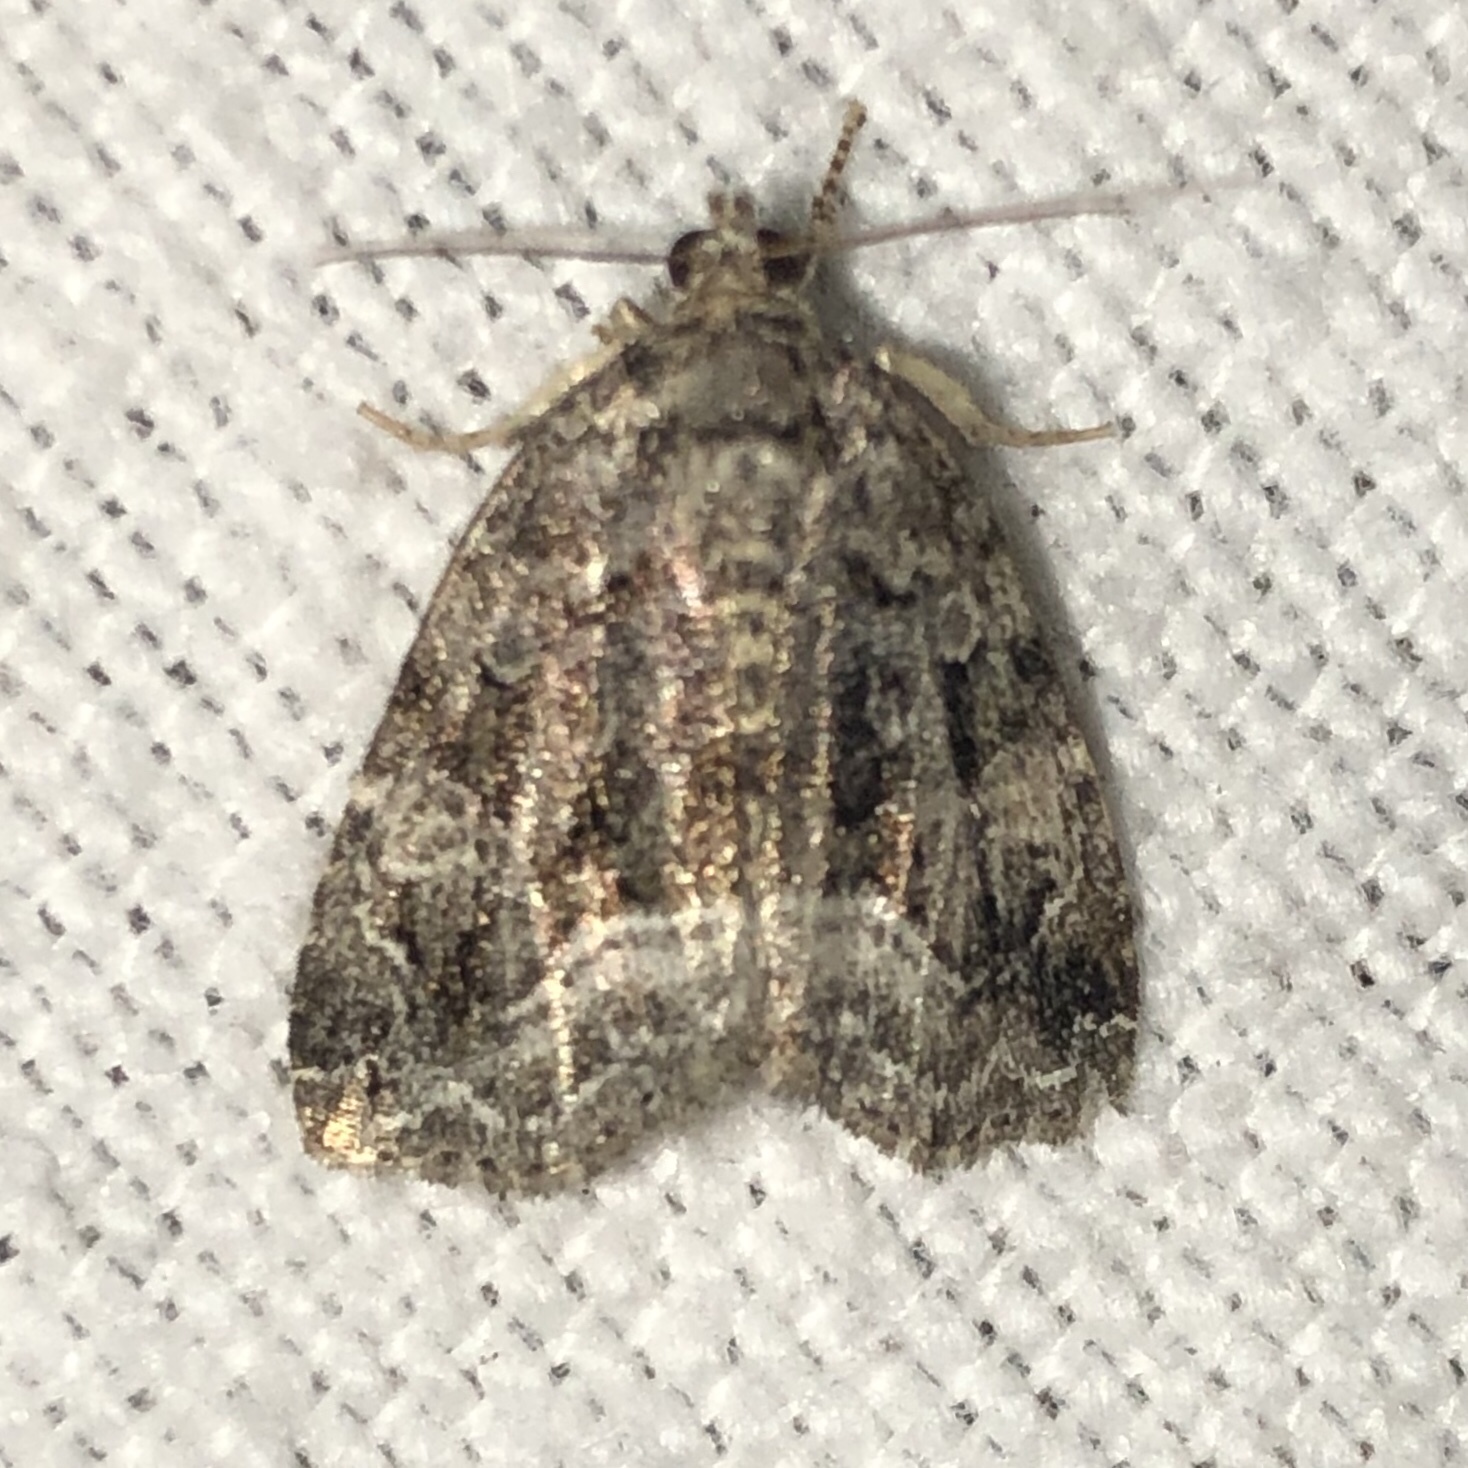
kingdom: Animalia
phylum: Arthropoda
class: Insecta
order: Lepidoptera
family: Noctuidae
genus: Protodeltote
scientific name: Protodeltote muscosula
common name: Large mossy glyph
